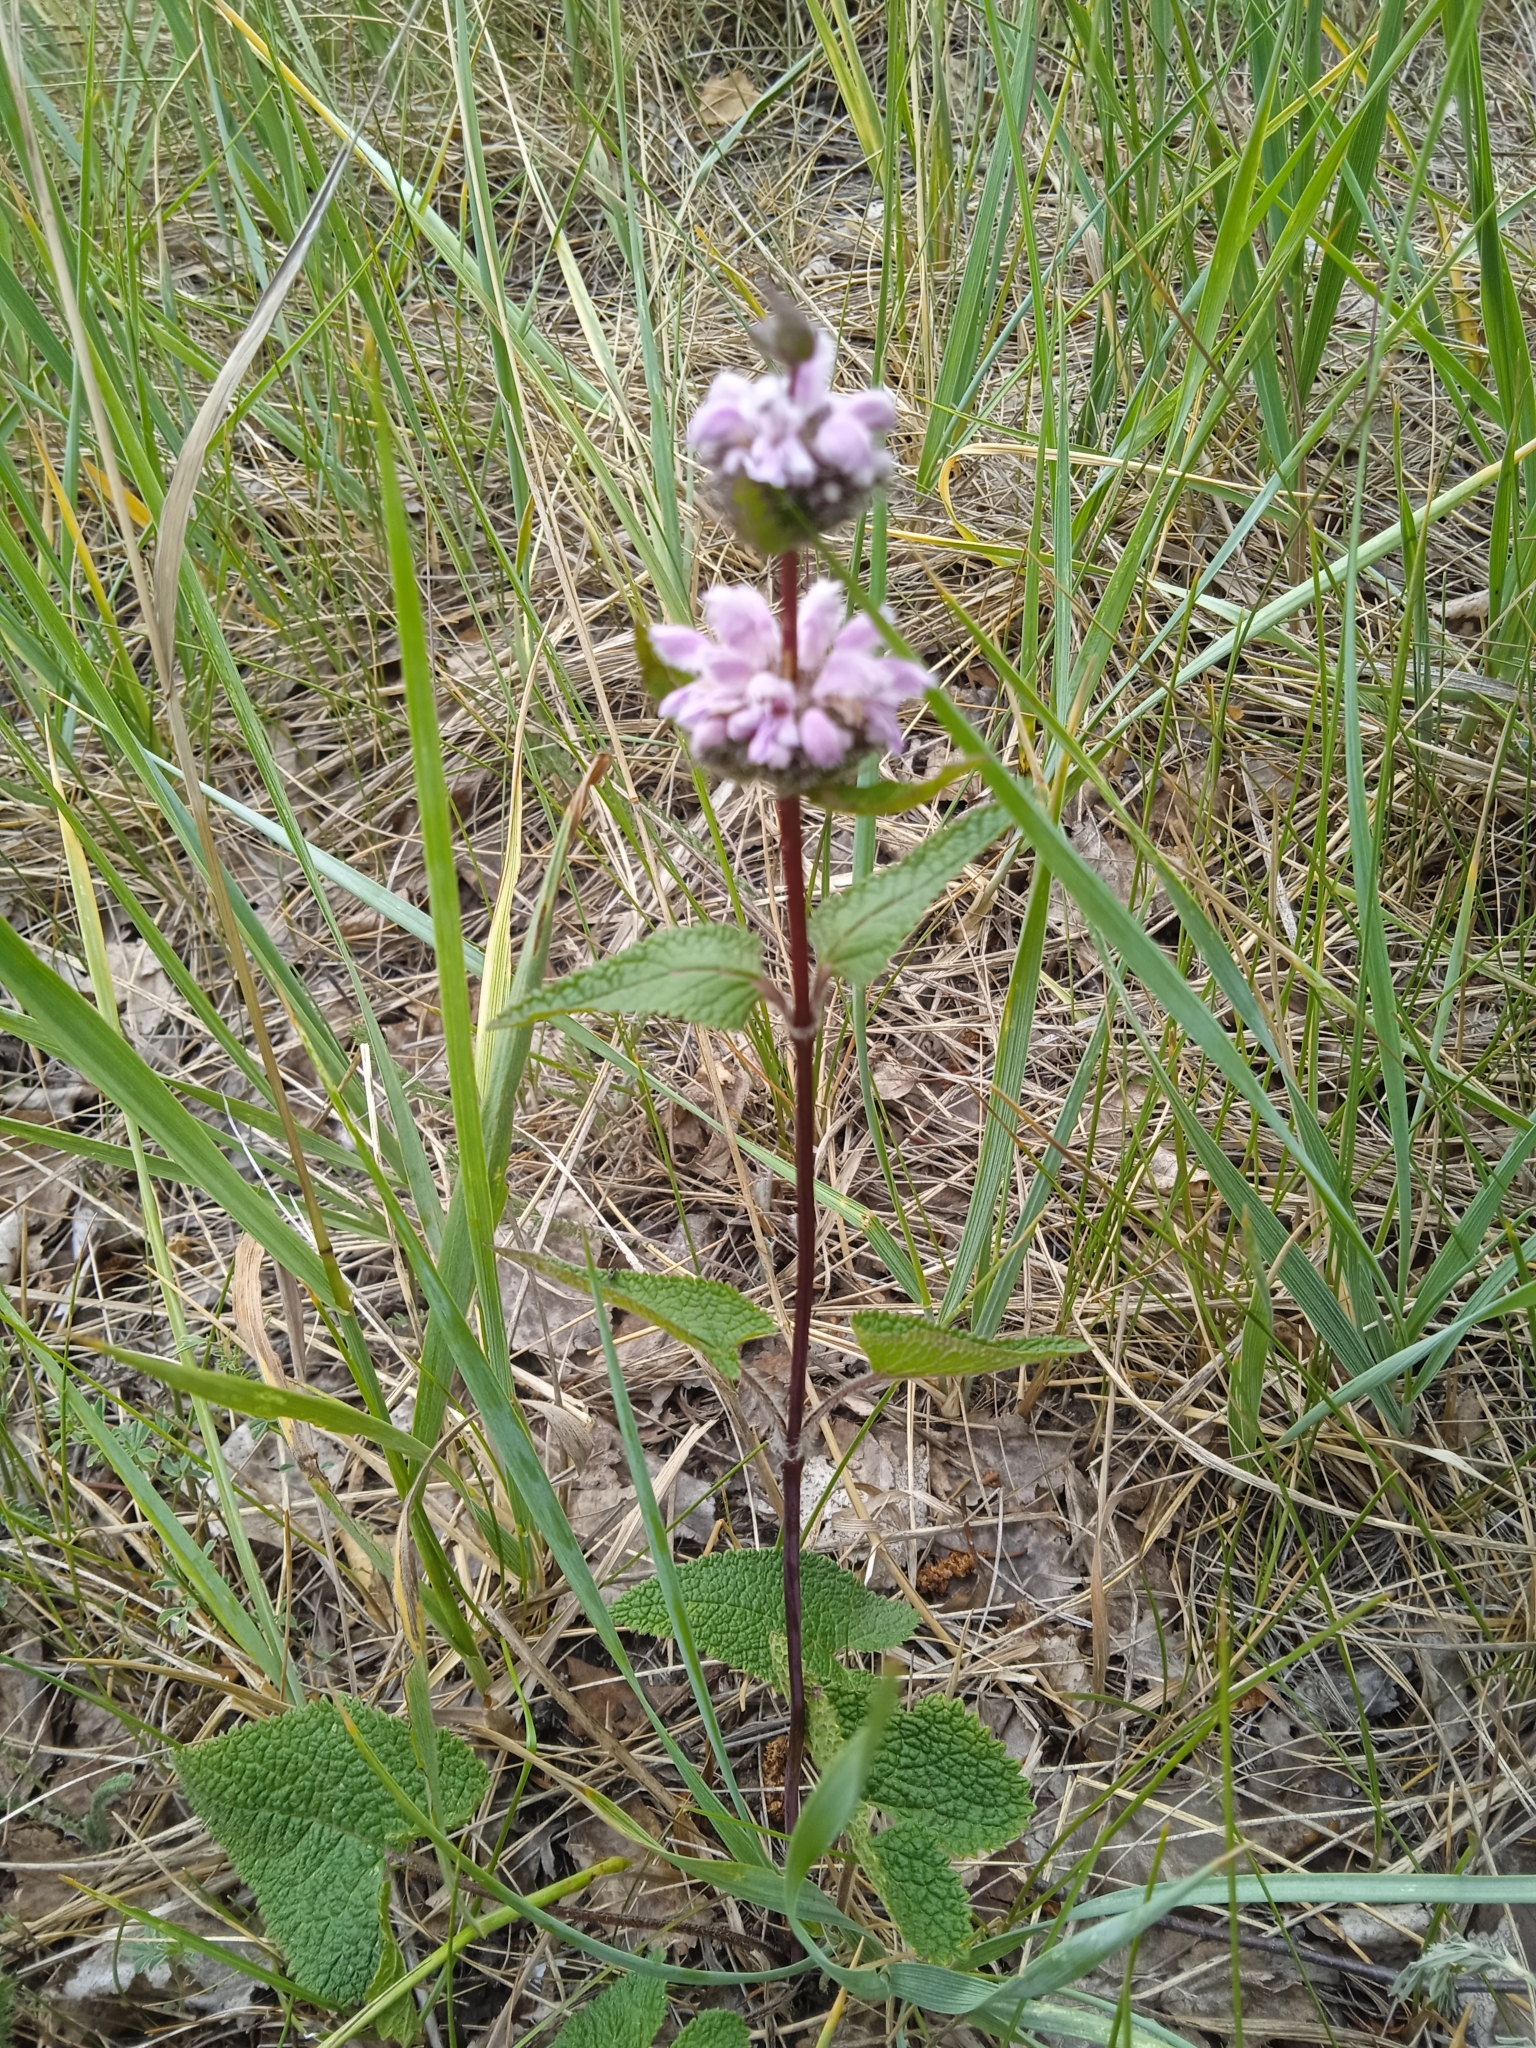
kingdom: Plantae
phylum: Tracheophyta
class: Magnoliopsida
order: Lamiales
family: Lamiaceae
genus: Phlomoides
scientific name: Phlomoides tuberosa
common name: Tuberous jerusalem sage
